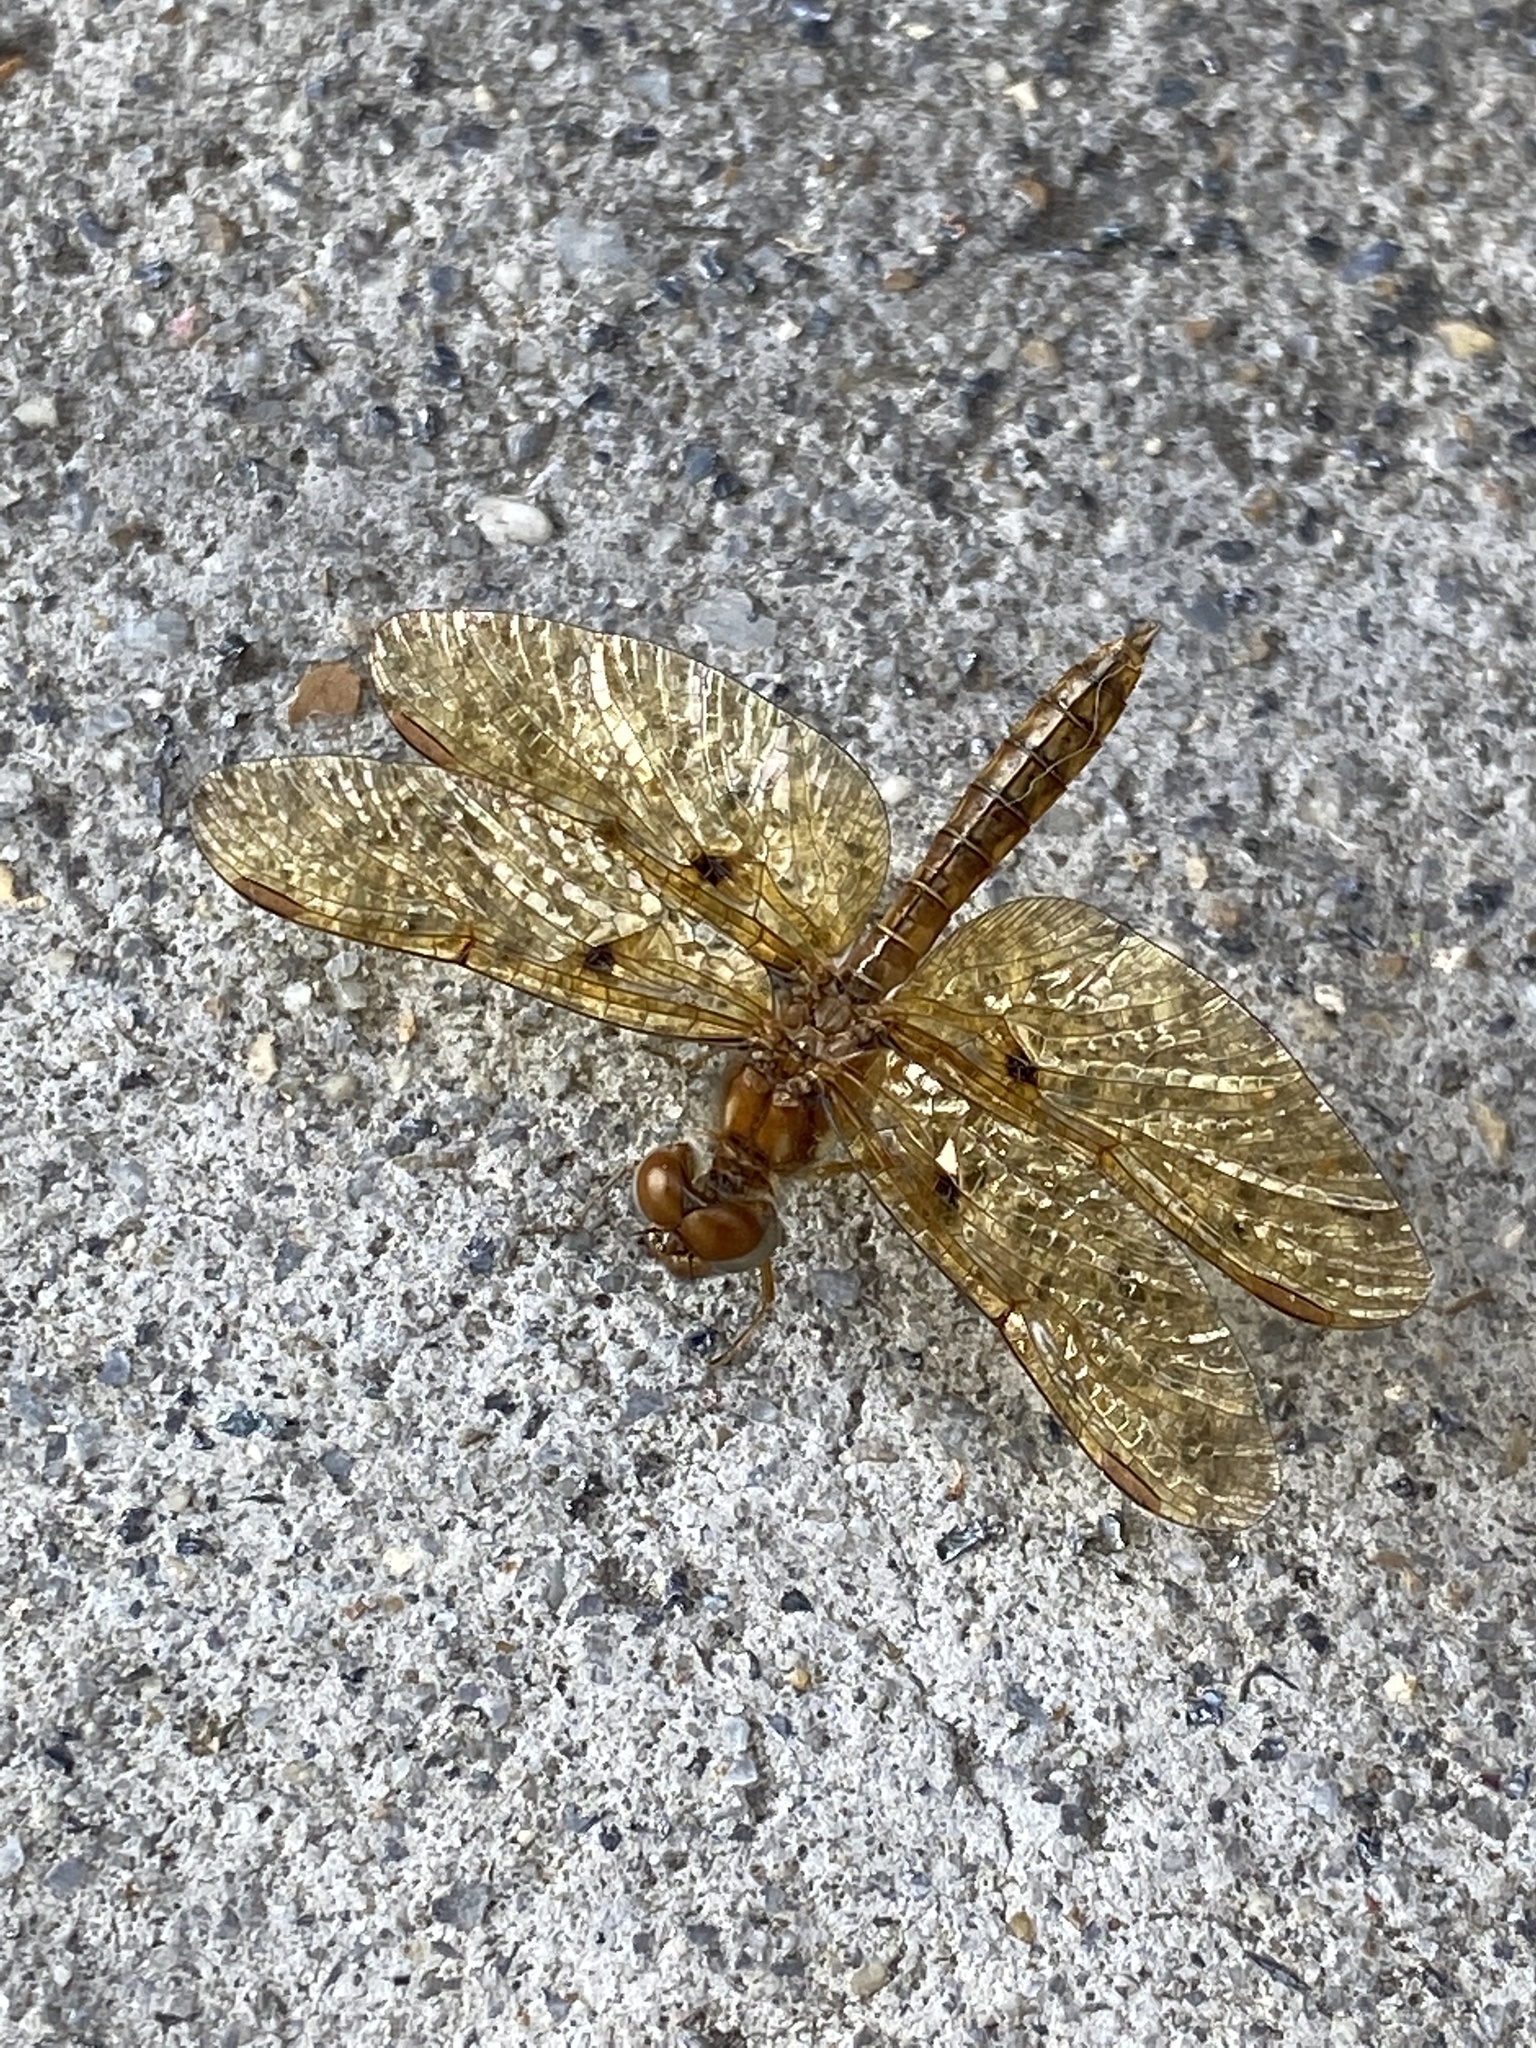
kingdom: Animalia
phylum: Arthropoda
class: Insecta
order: Odonata
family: Libellulidae
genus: Perithemis
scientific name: Perithemis tenera
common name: Eastern amberwing
